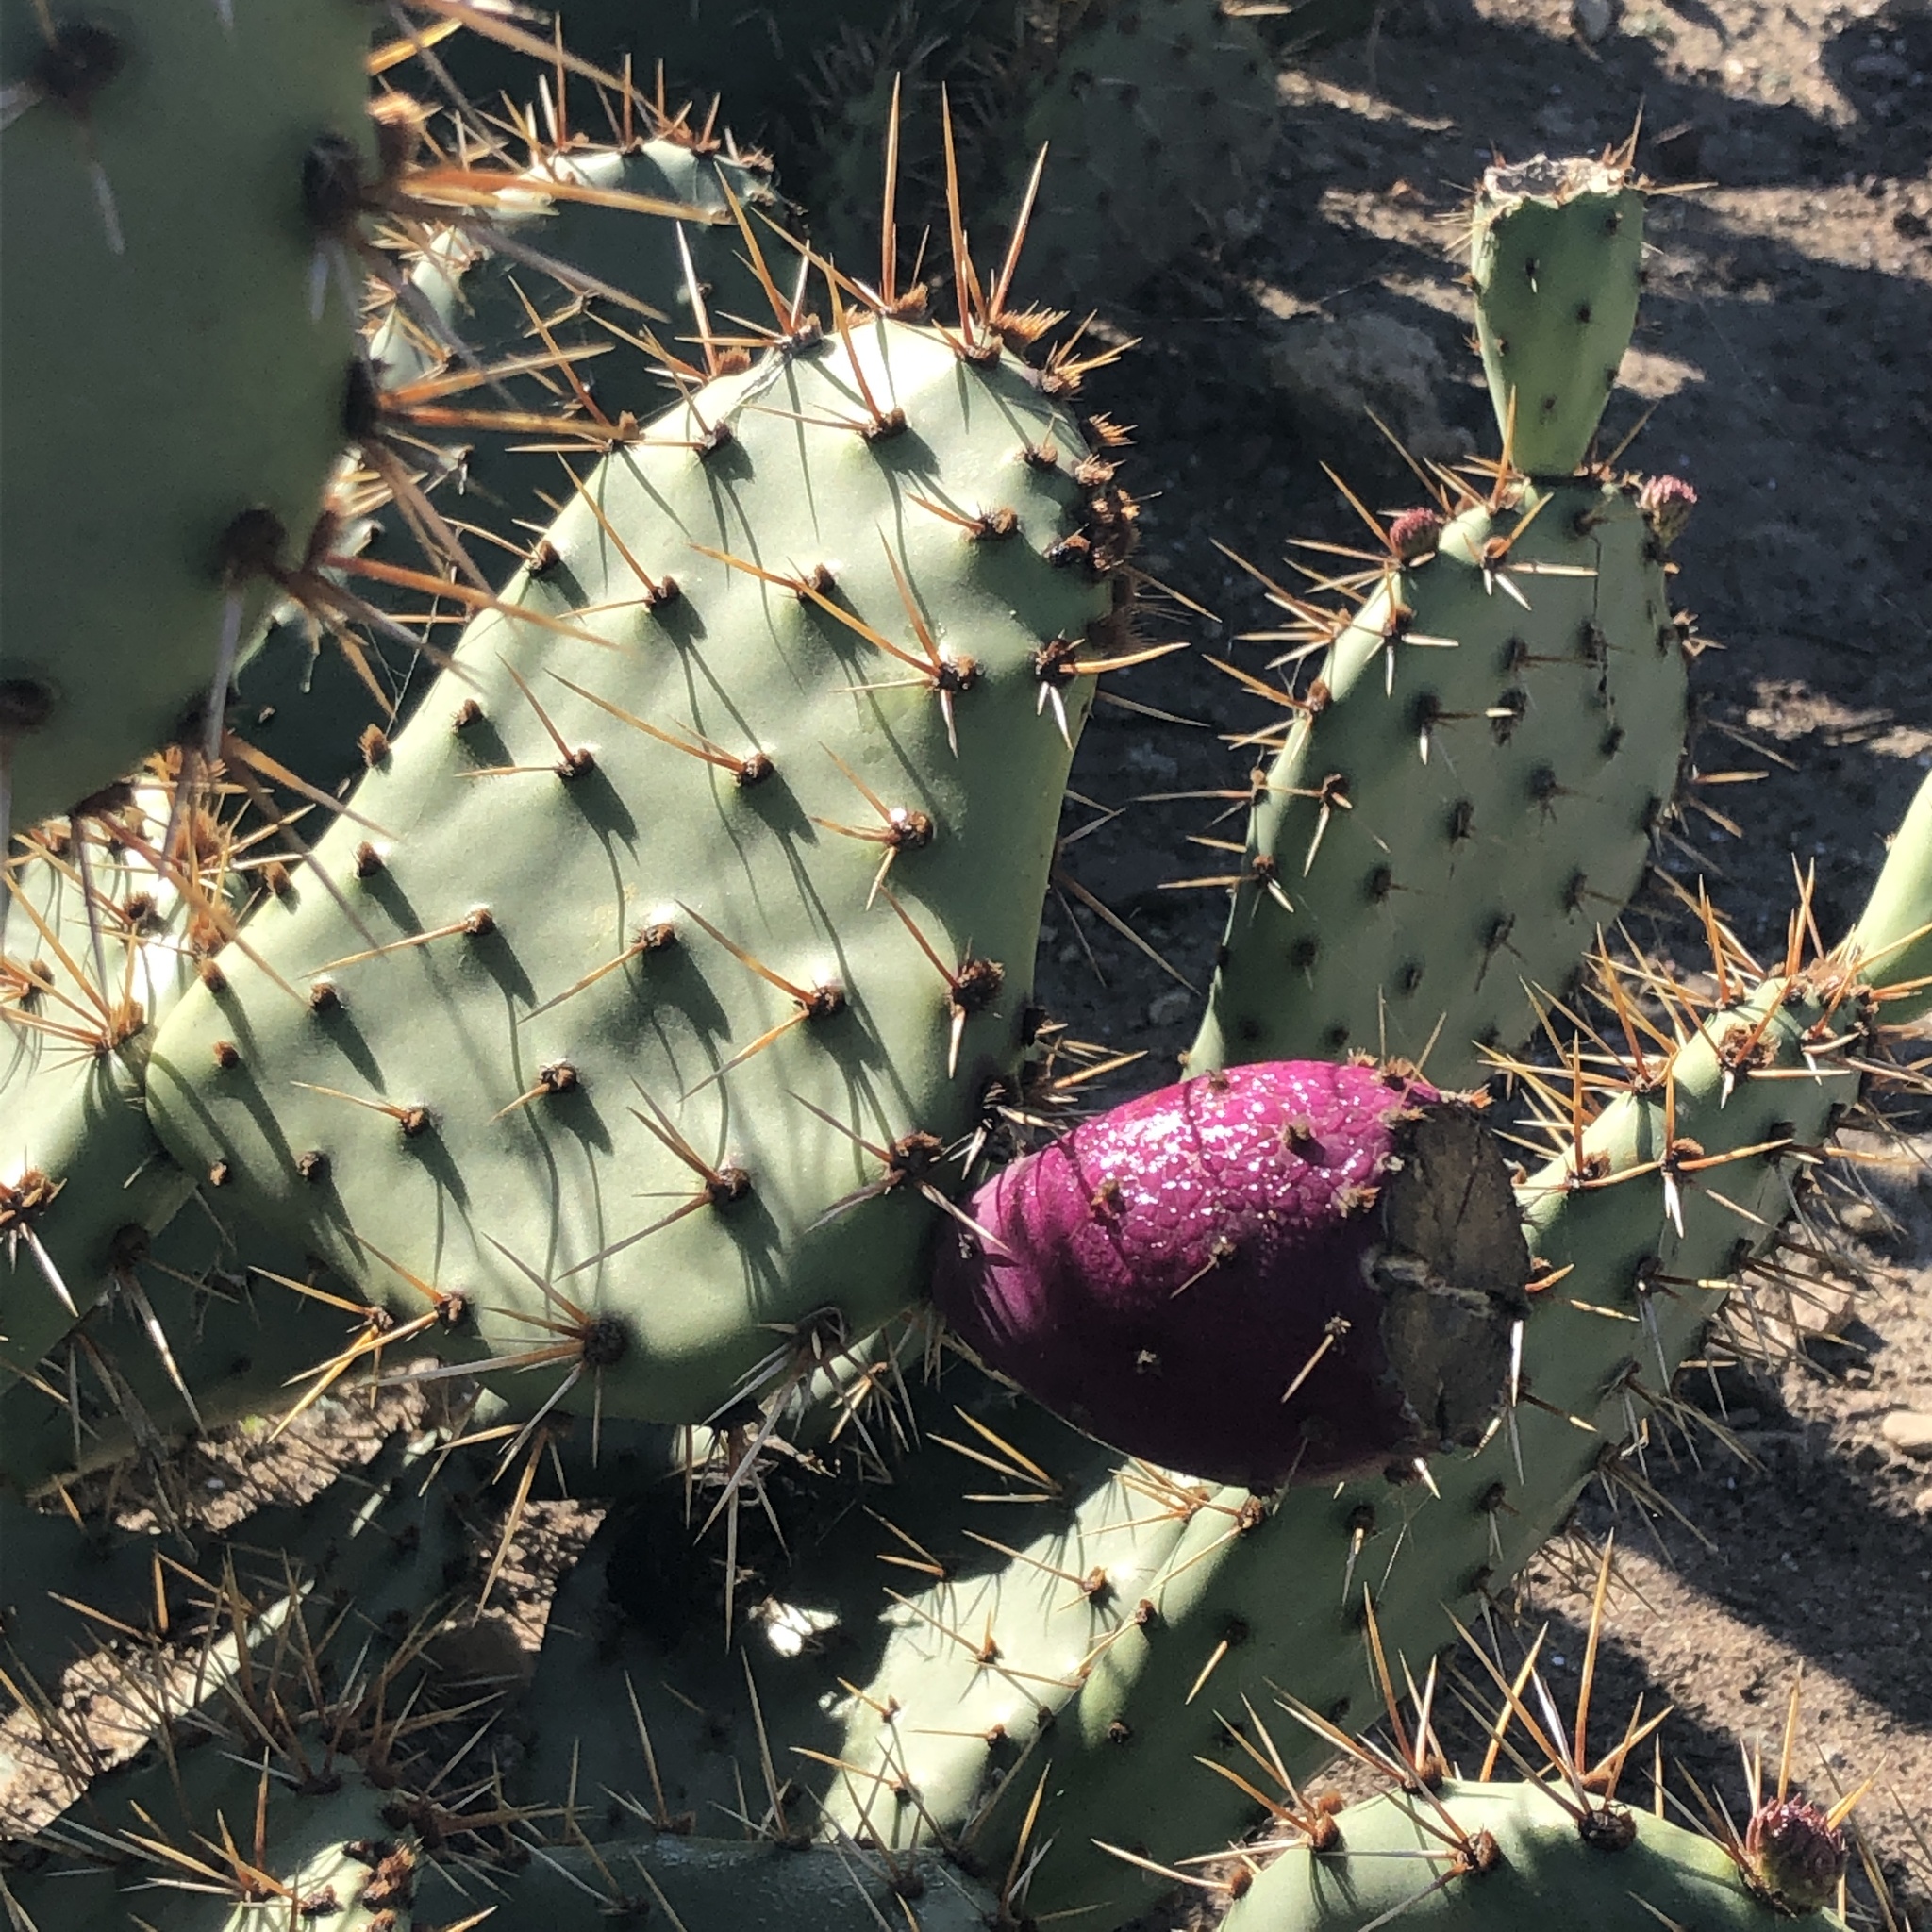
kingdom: Plantae
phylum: Tracheophyta
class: Magnoliopsida
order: Caryophyllales
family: Cactaceae
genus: Opuntia
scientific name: Opuntia littoralis
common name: Coastal prickly-pear
